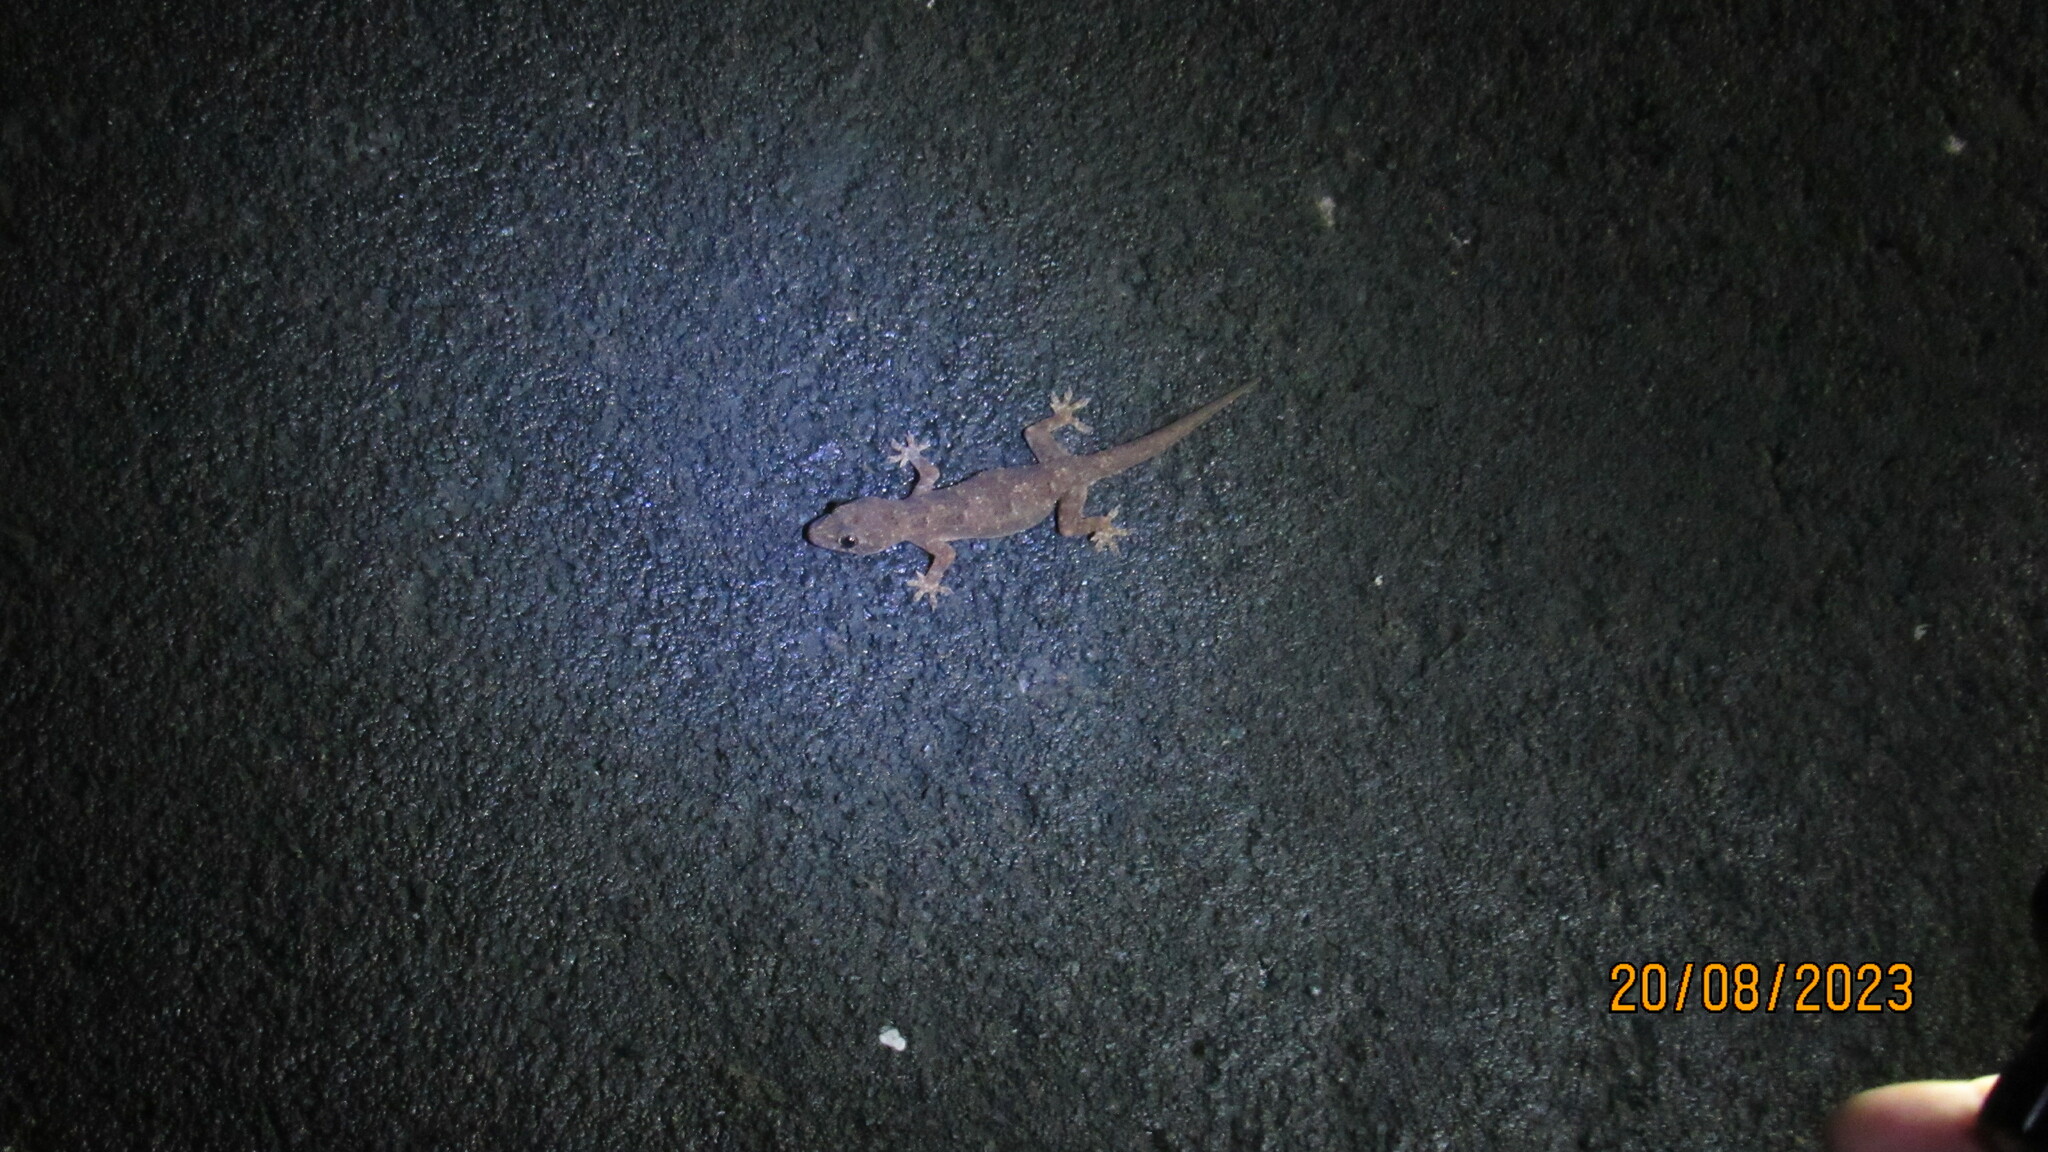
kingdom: Animalia
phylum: Chordata
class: Squamata
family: Gekkonidae
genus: Hemidactylus
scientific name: Hemidactylus mabouia
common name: House gecko
